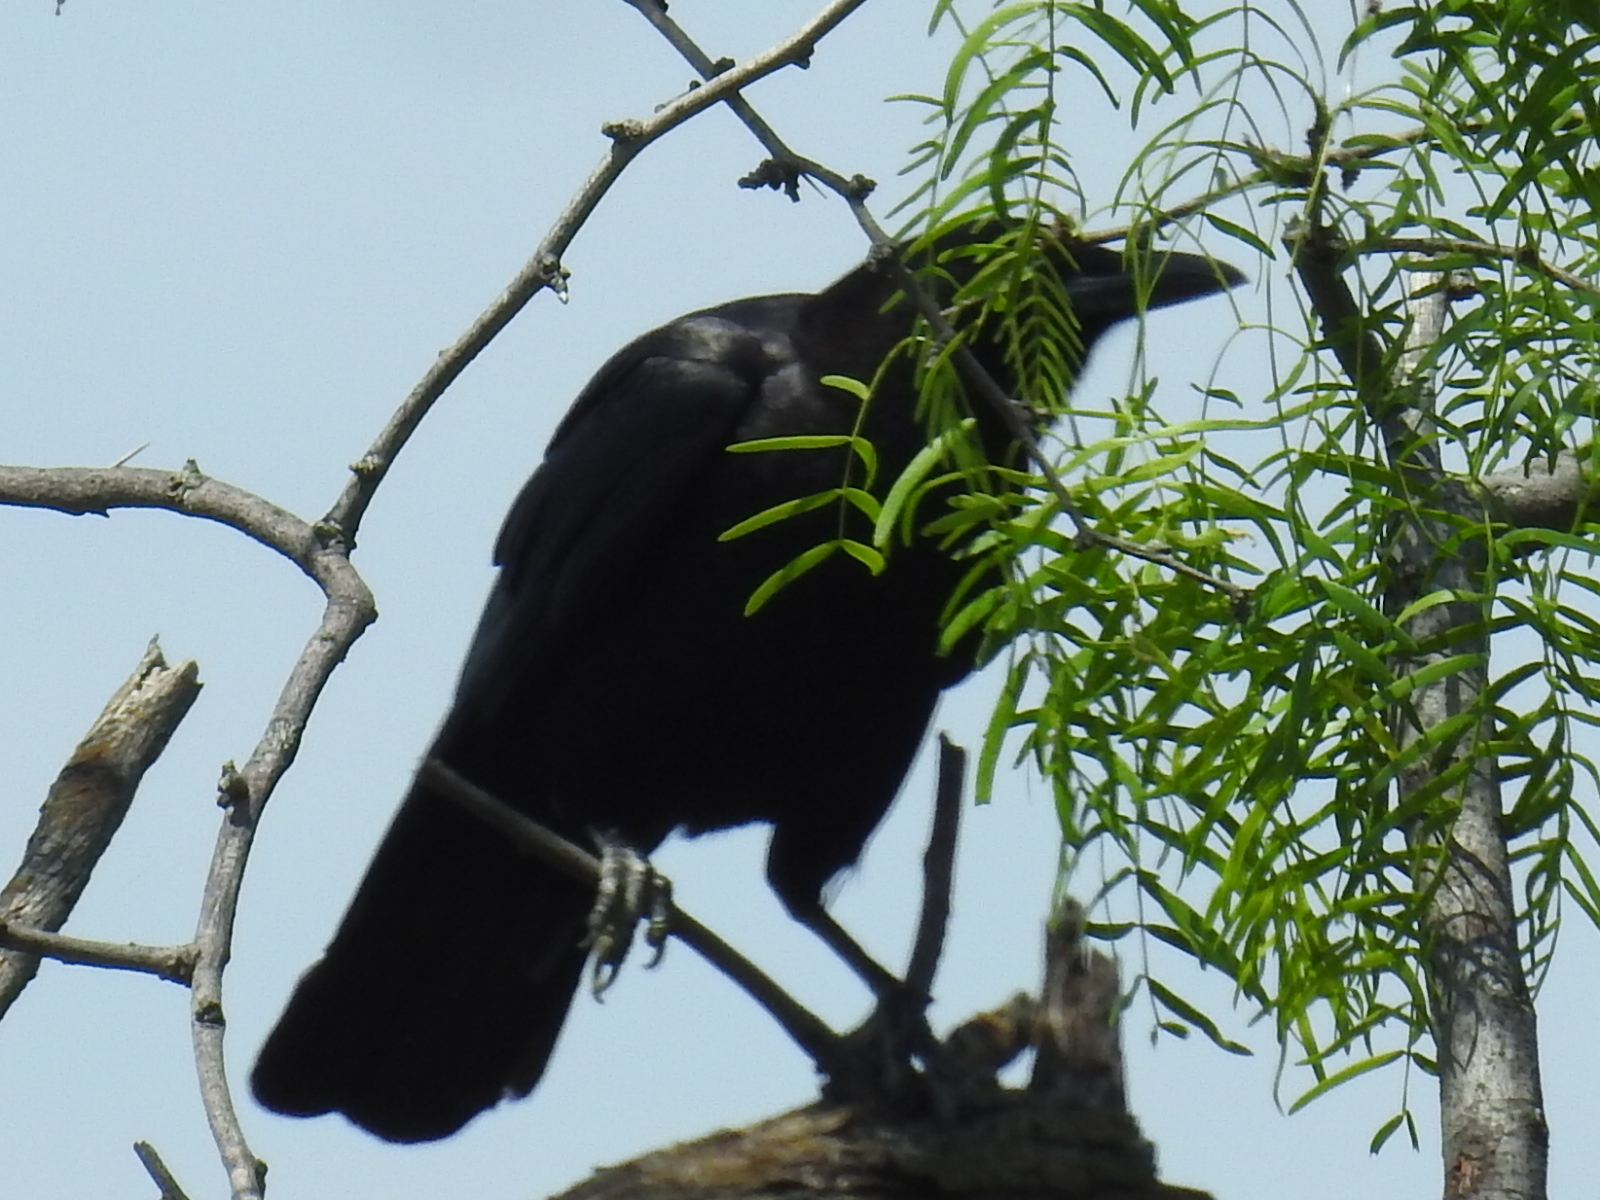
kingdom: Animalia
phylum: Chordata
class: Aves
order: Passeriformes
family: Corvidae
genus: Corvus
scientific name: Corvus brachyrhynchos
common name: American crow
